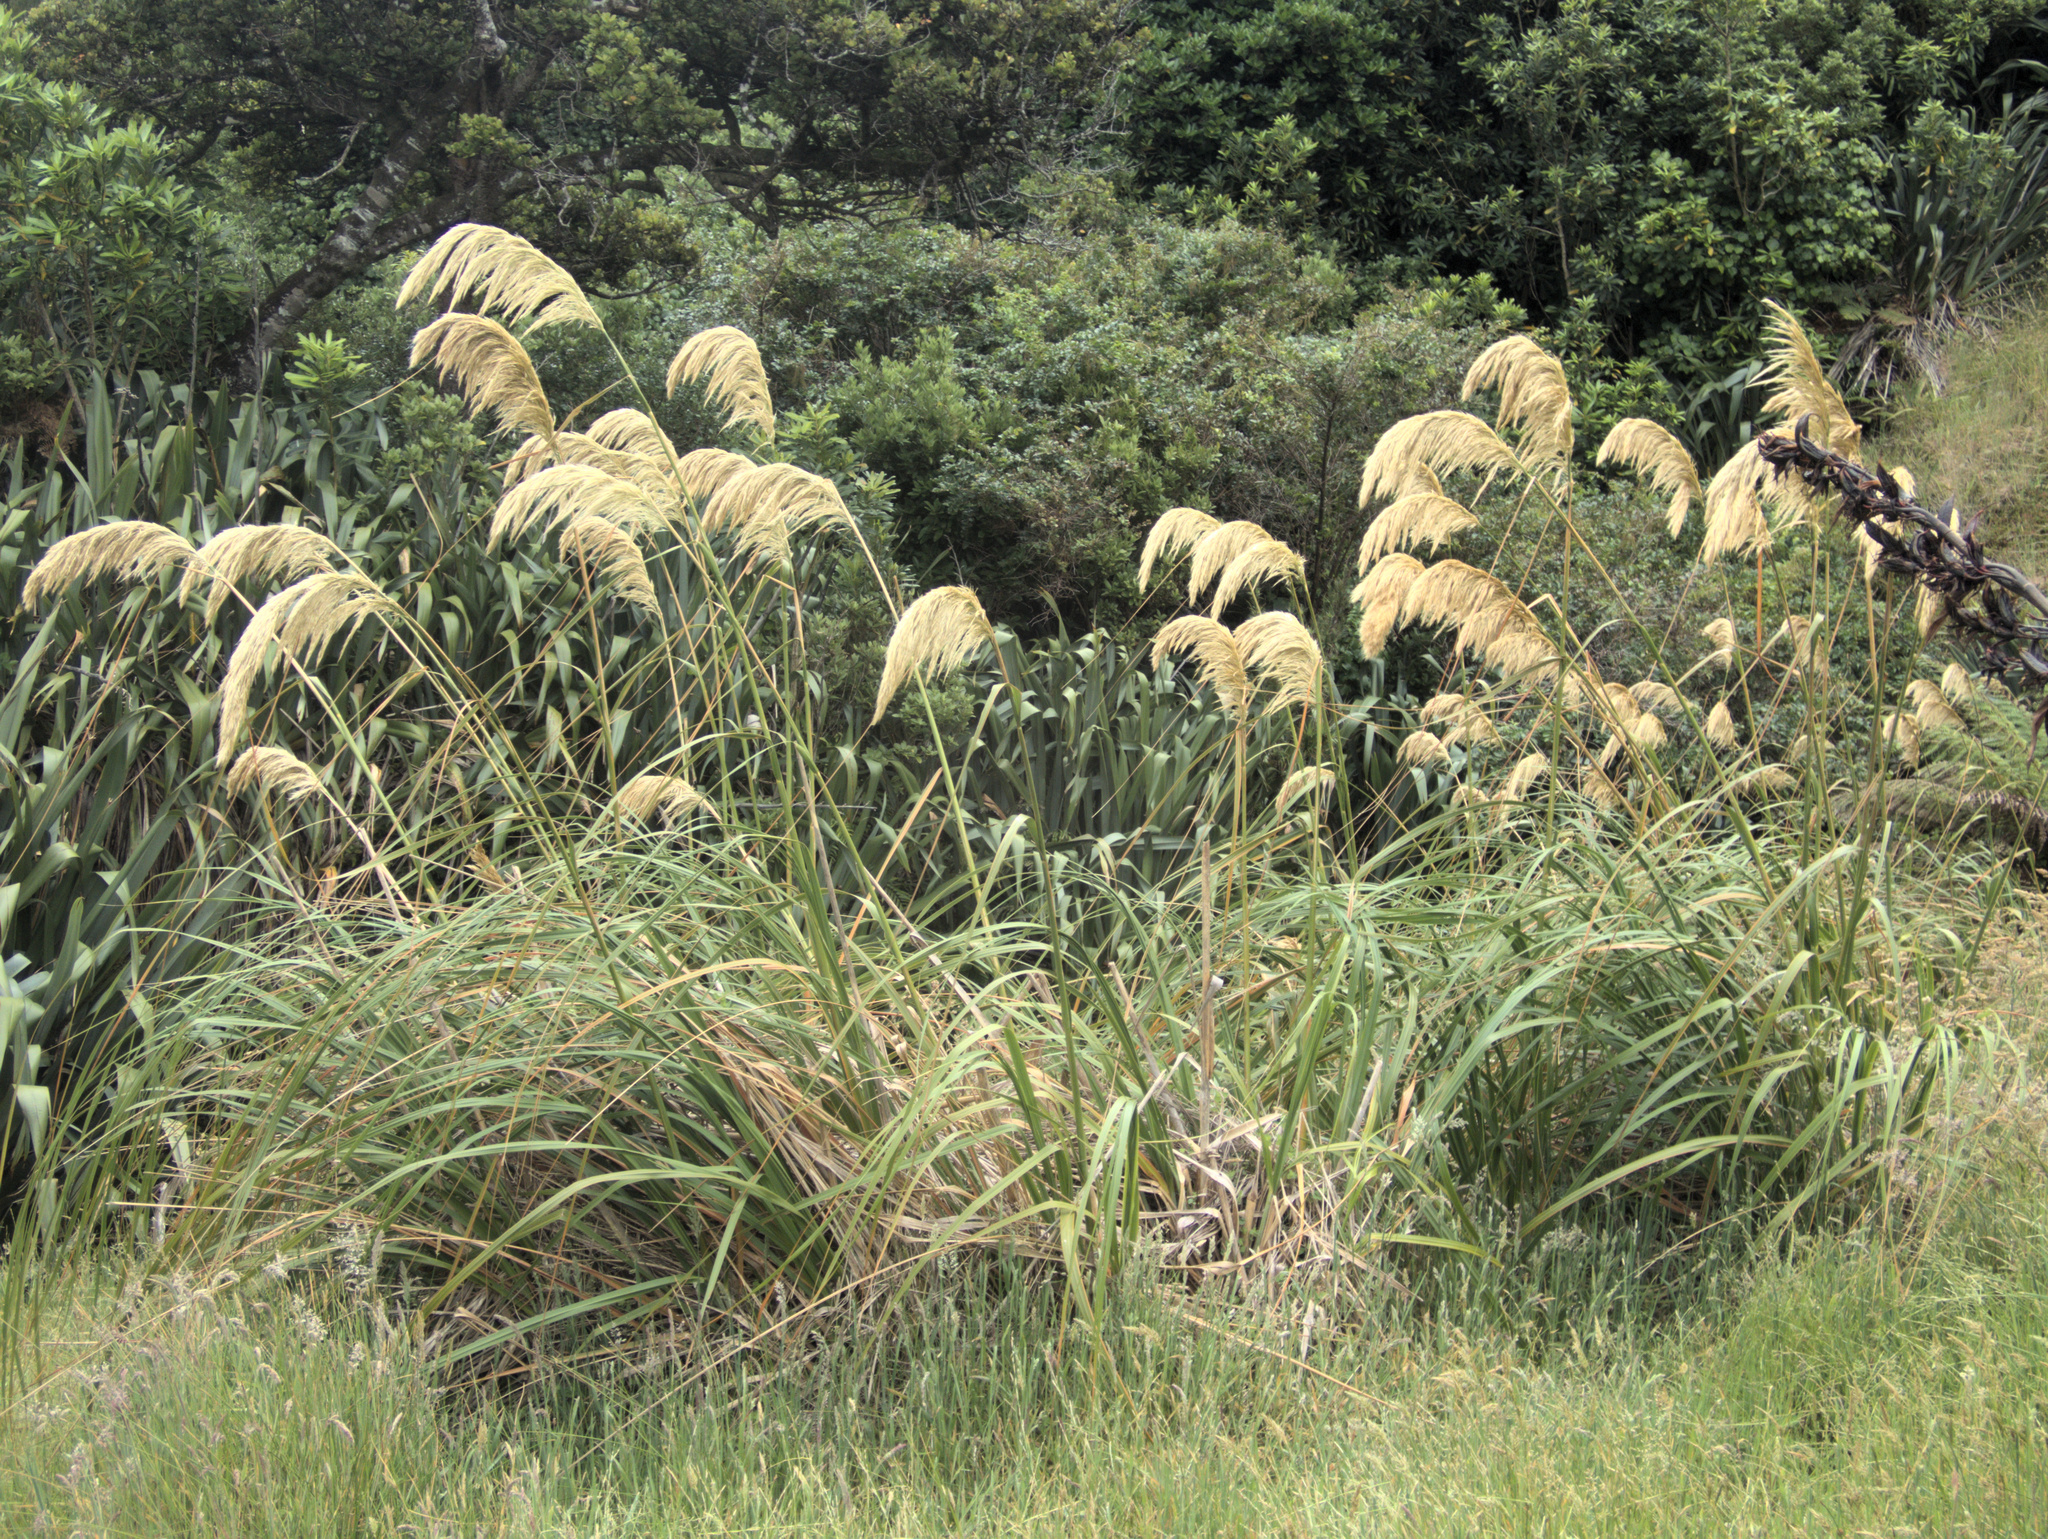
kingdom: Plantae
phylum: Tracheophyta
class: Liliopsida
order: Poales
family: Poaceae
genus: Austroderia
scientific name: Austroderia turbaria
